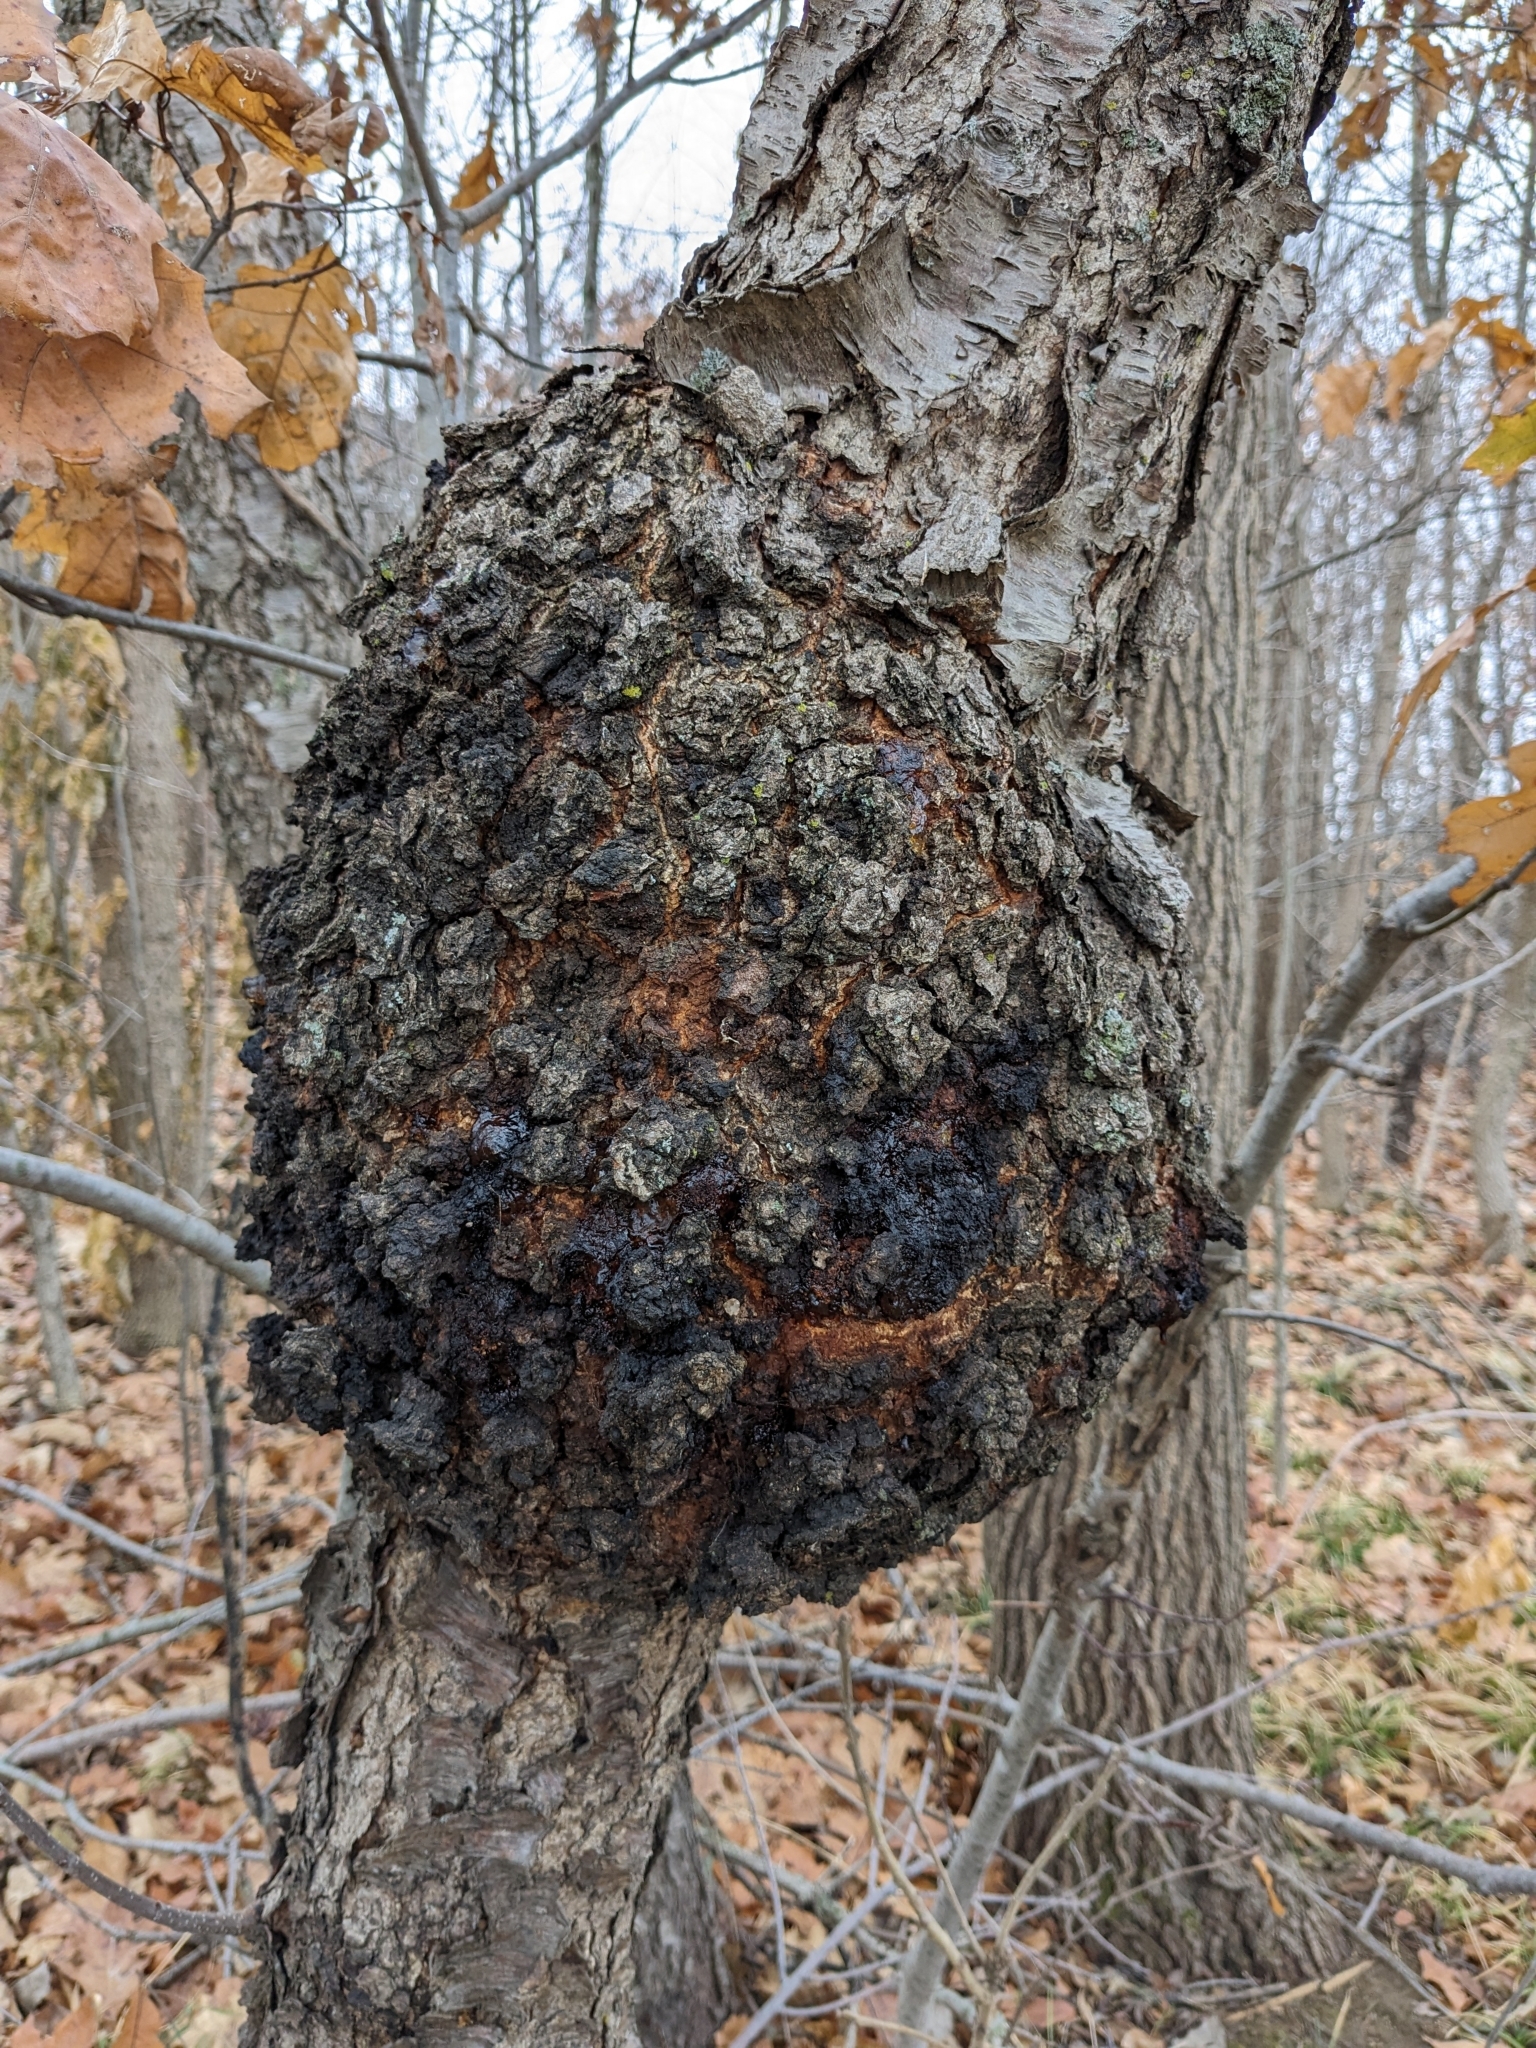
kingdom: Bacteria
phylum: Proteobacteria
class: Alphaproteobacteria
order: Rhizobiales
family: Rhizobiaceae
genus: Rhizobium
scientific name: Rhizobium Agrobacterium radiobacter
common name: Bacterial crown gall
